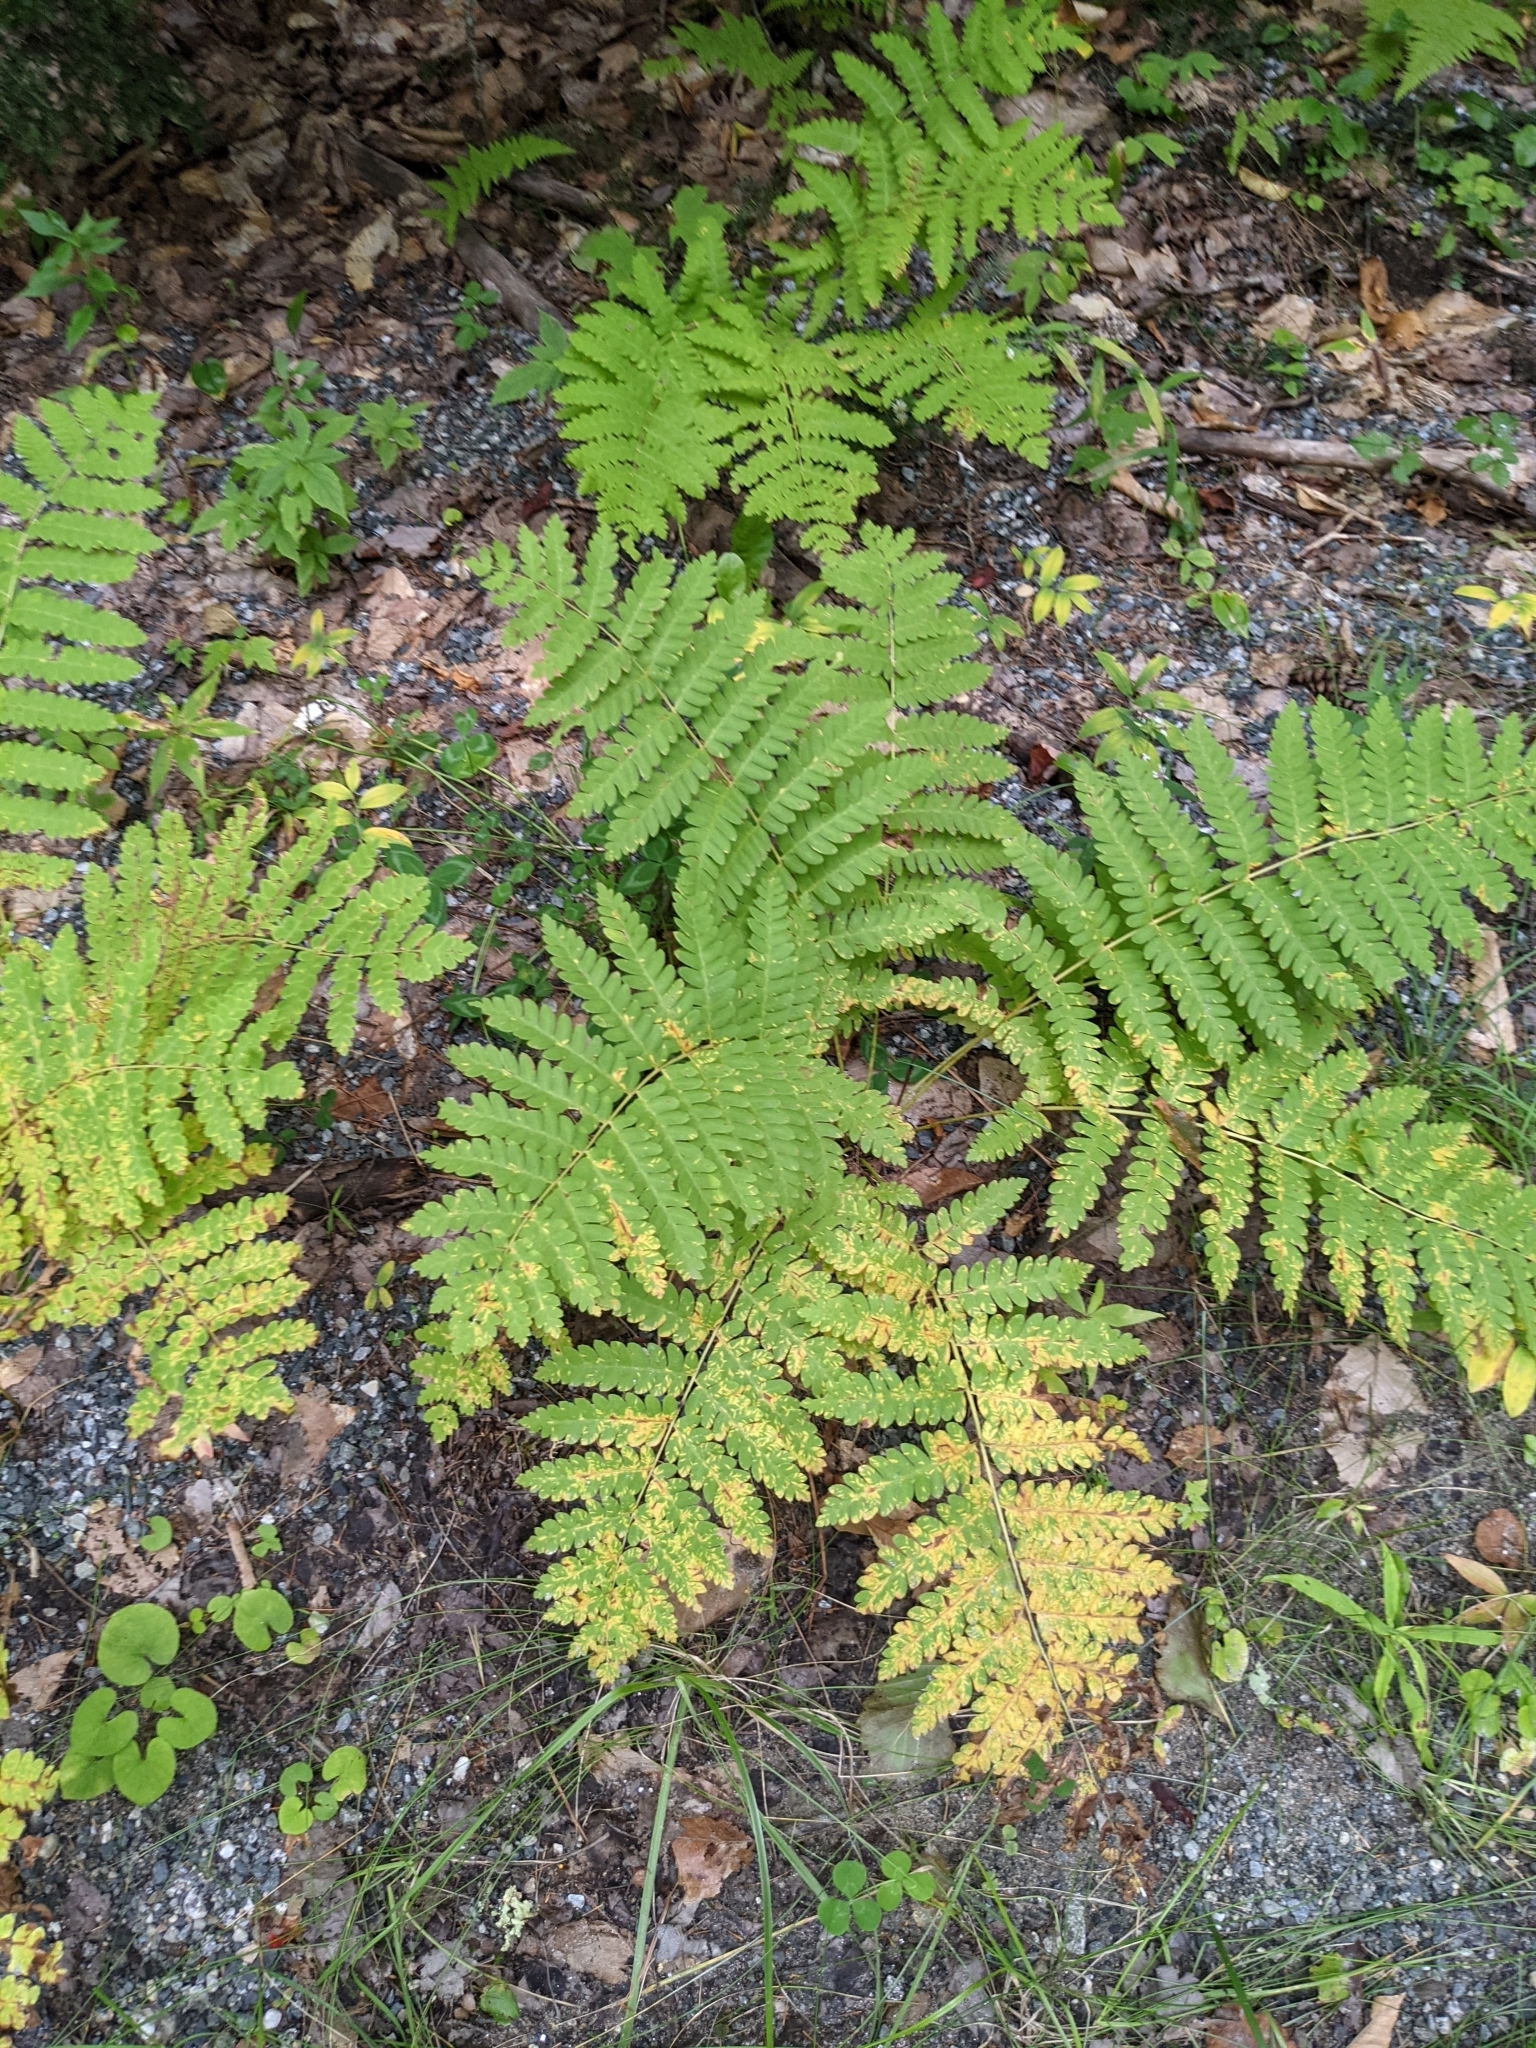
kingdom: Plantae
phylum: Tracheophyta
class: Polypodiopsida
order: Osmundales
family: Osmundaceae
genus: Claytosmunda
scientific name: Claytosmunda claytoniana
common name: Clayton's fern
